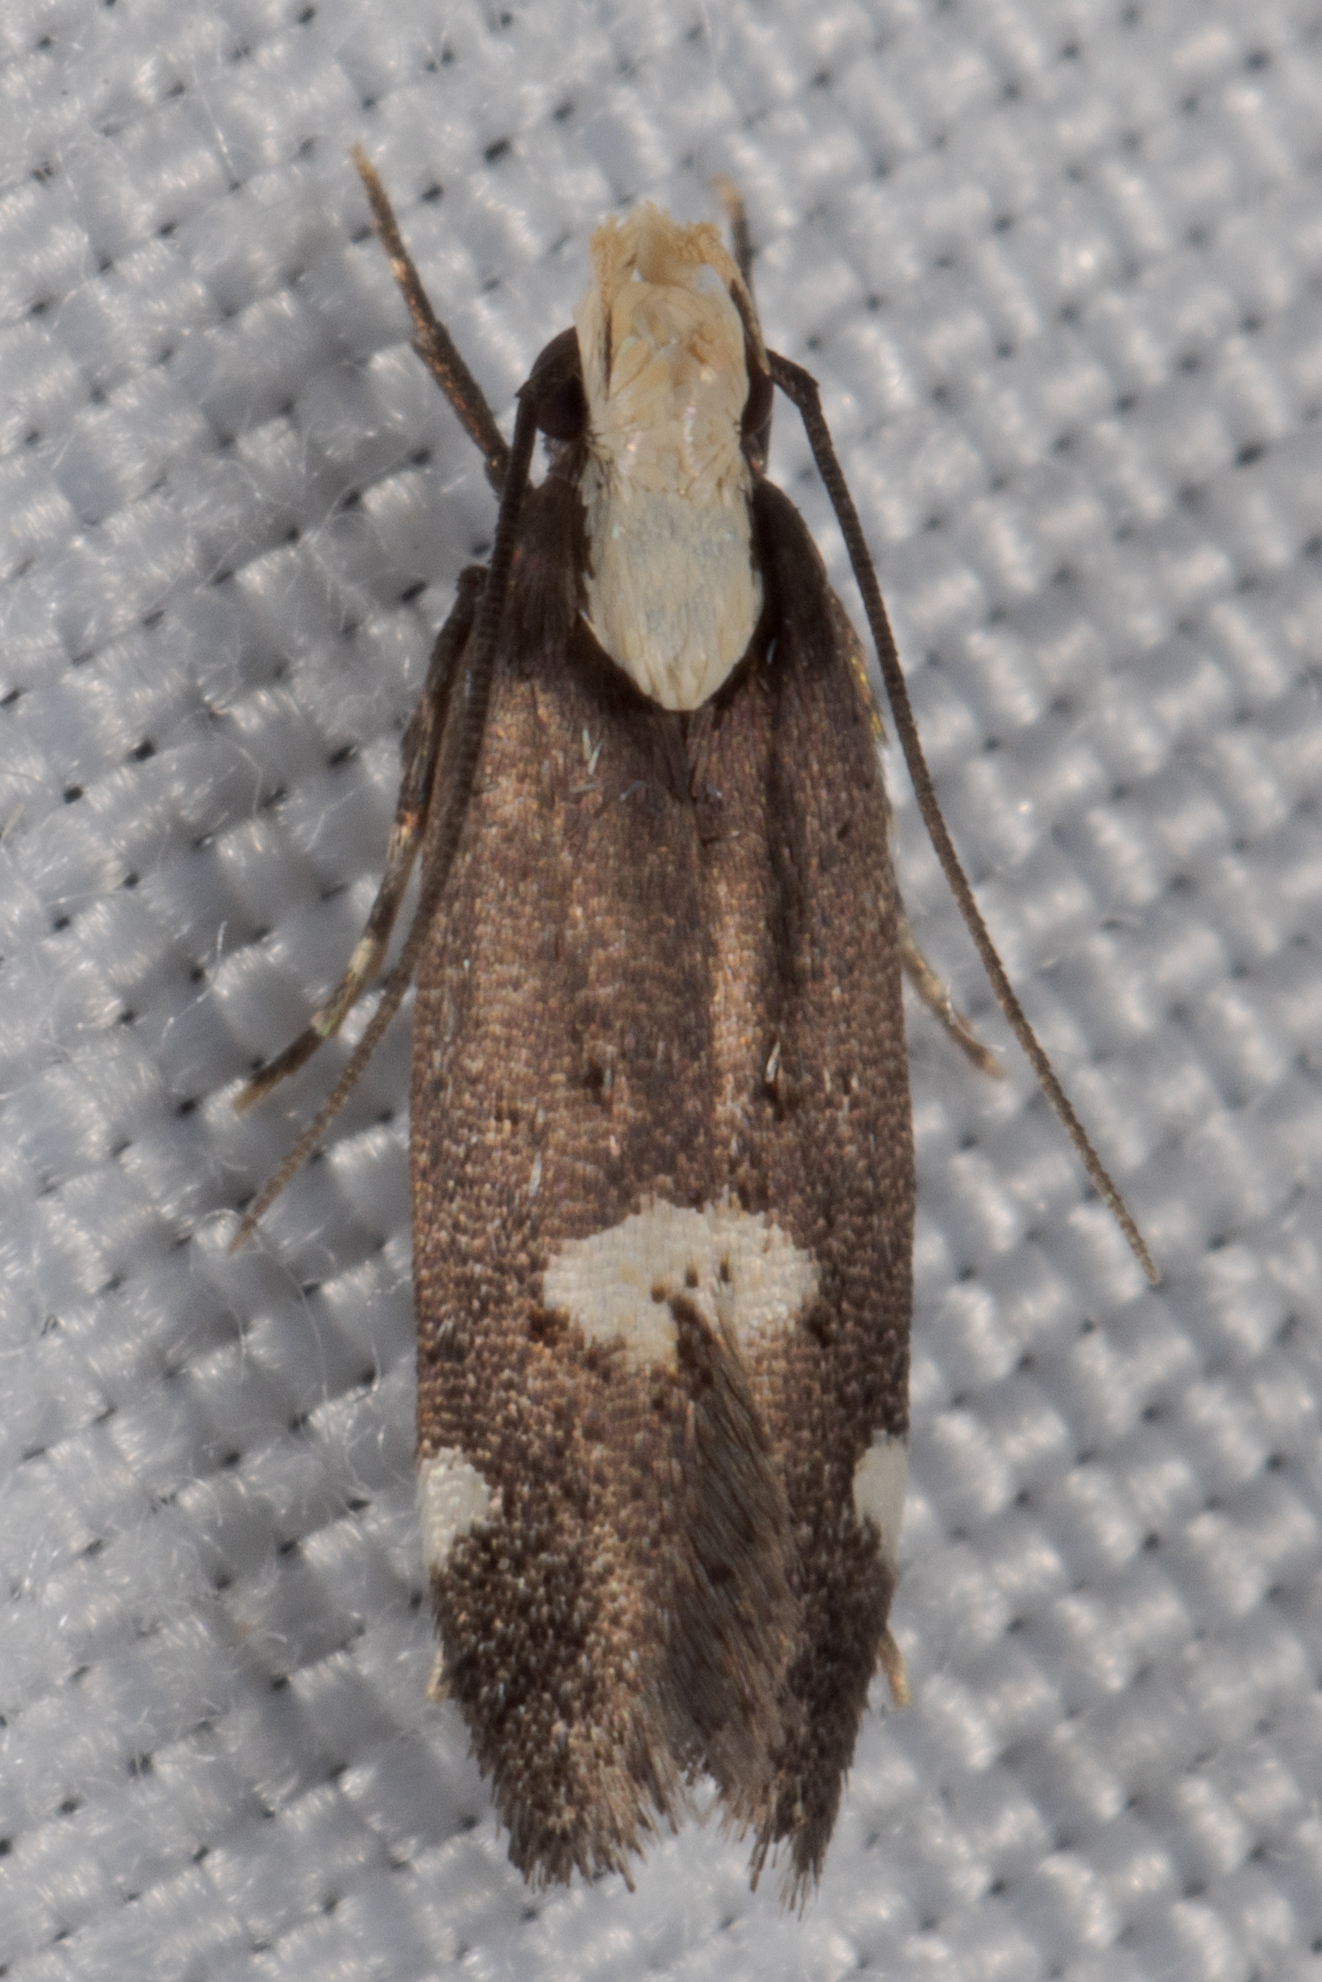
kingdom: Animalia
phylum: Arthropoda
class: Insecta
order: Lepidoptera
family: Gelechiidae
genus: Chionodes
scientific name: Chionodes mariona
